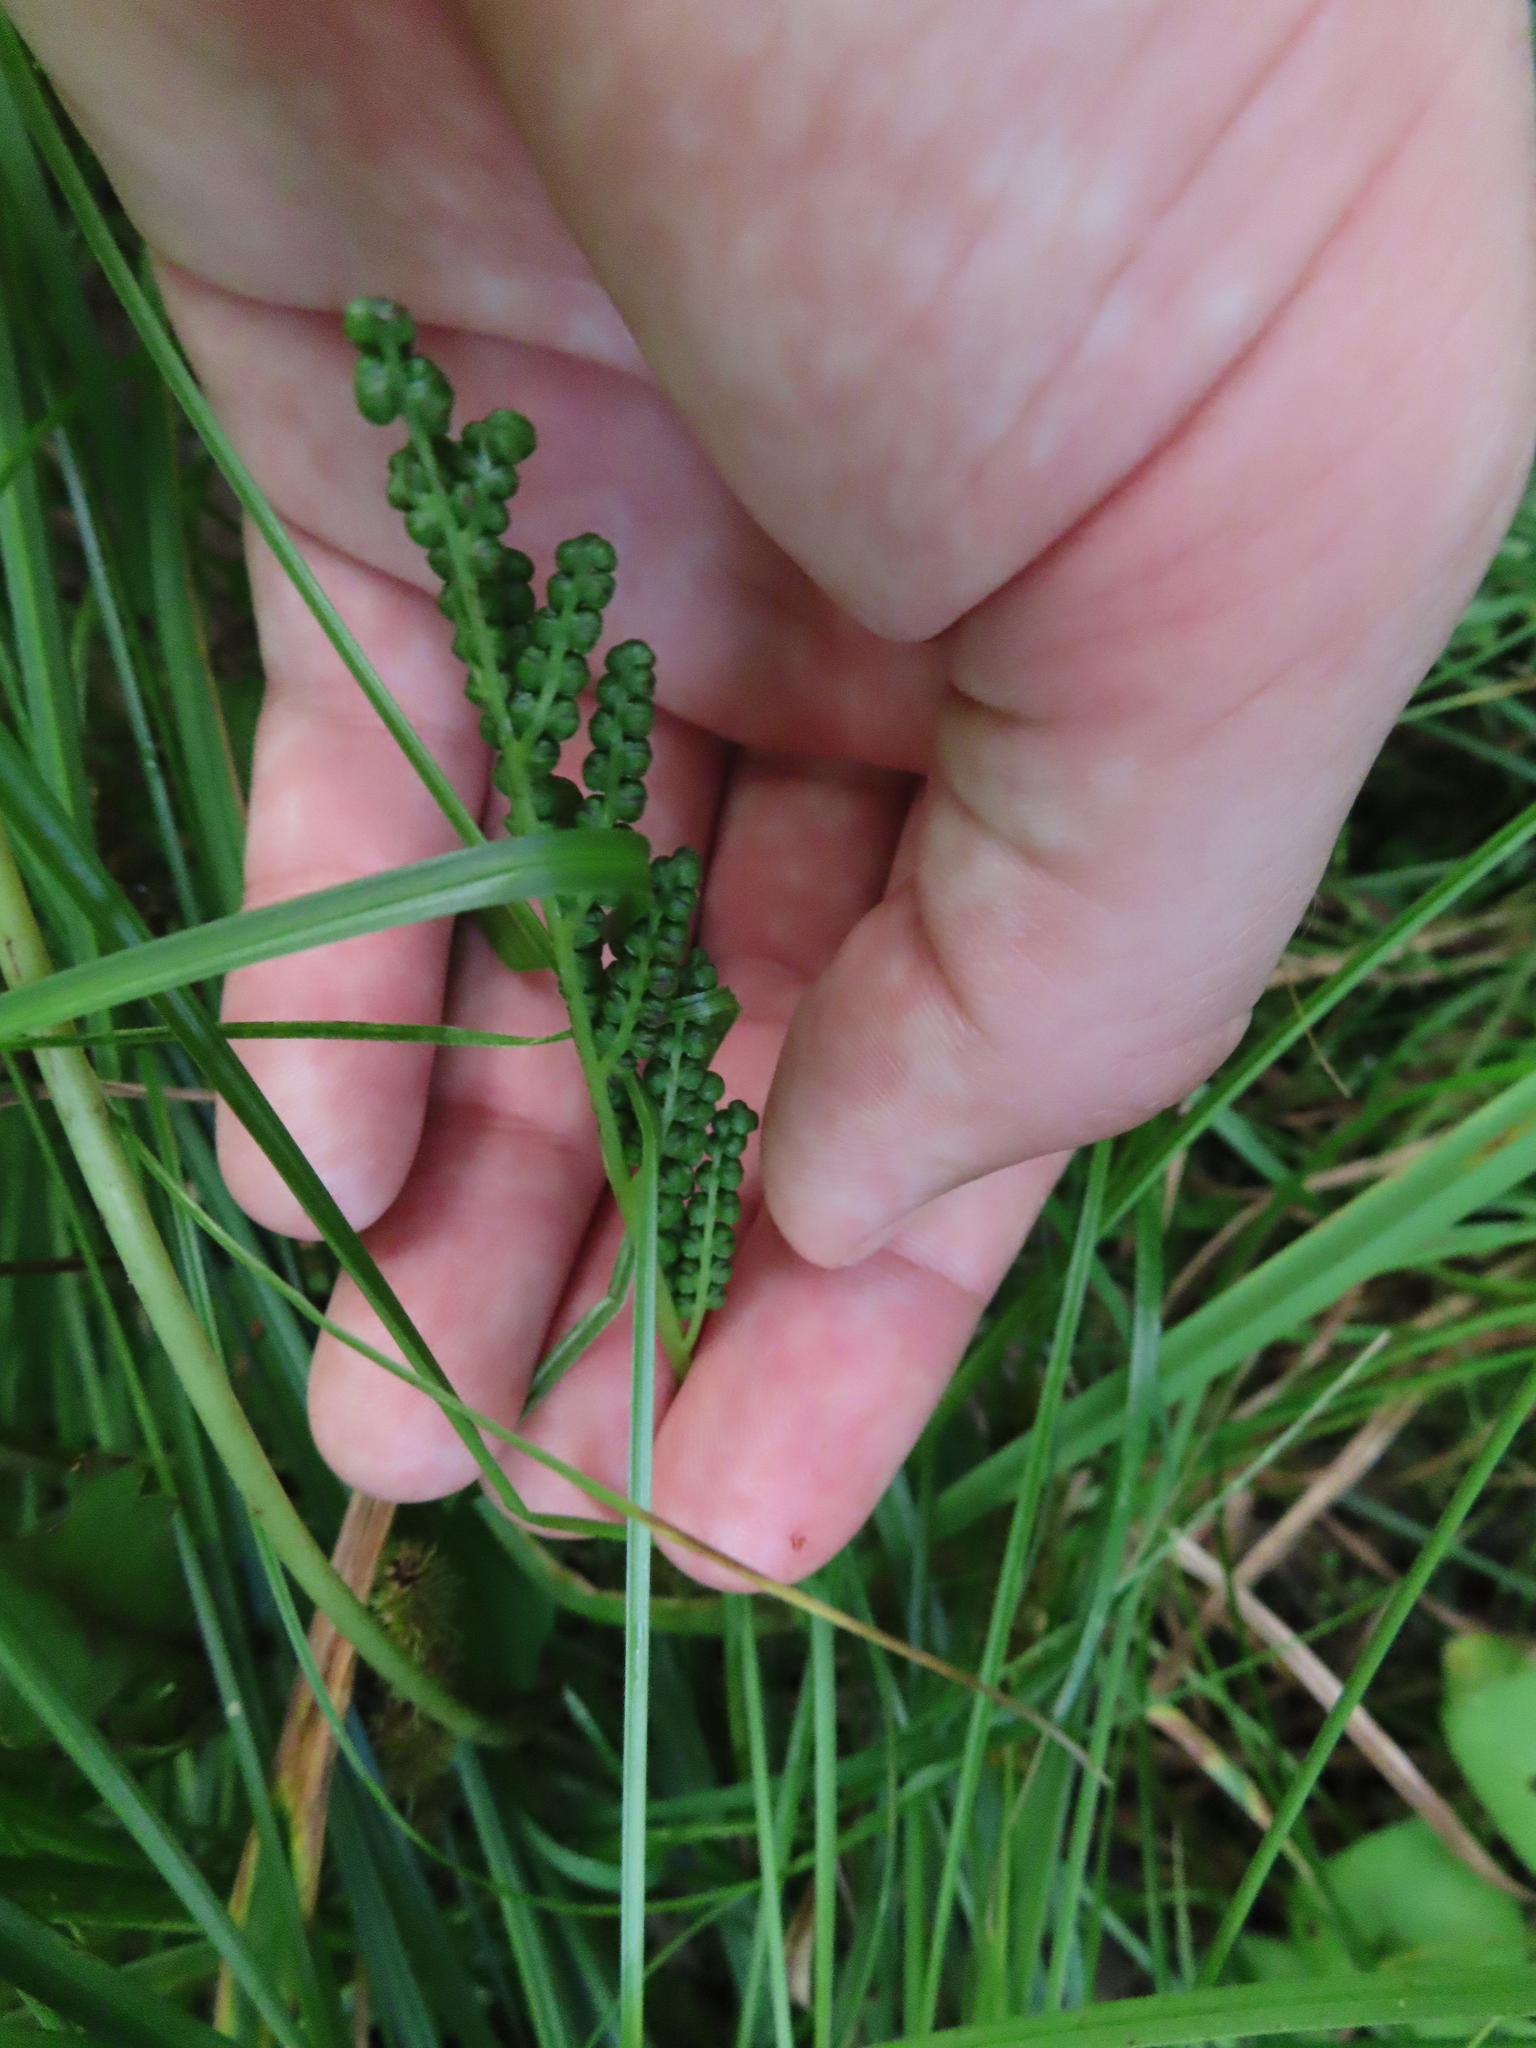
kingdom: Plantae
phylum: Tracheophyta
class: Polypodiopsida
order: Polypodiales
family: Onocleaceae
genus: Onoclea
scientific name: Onoclea sensibilis
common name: Sensitive fern
